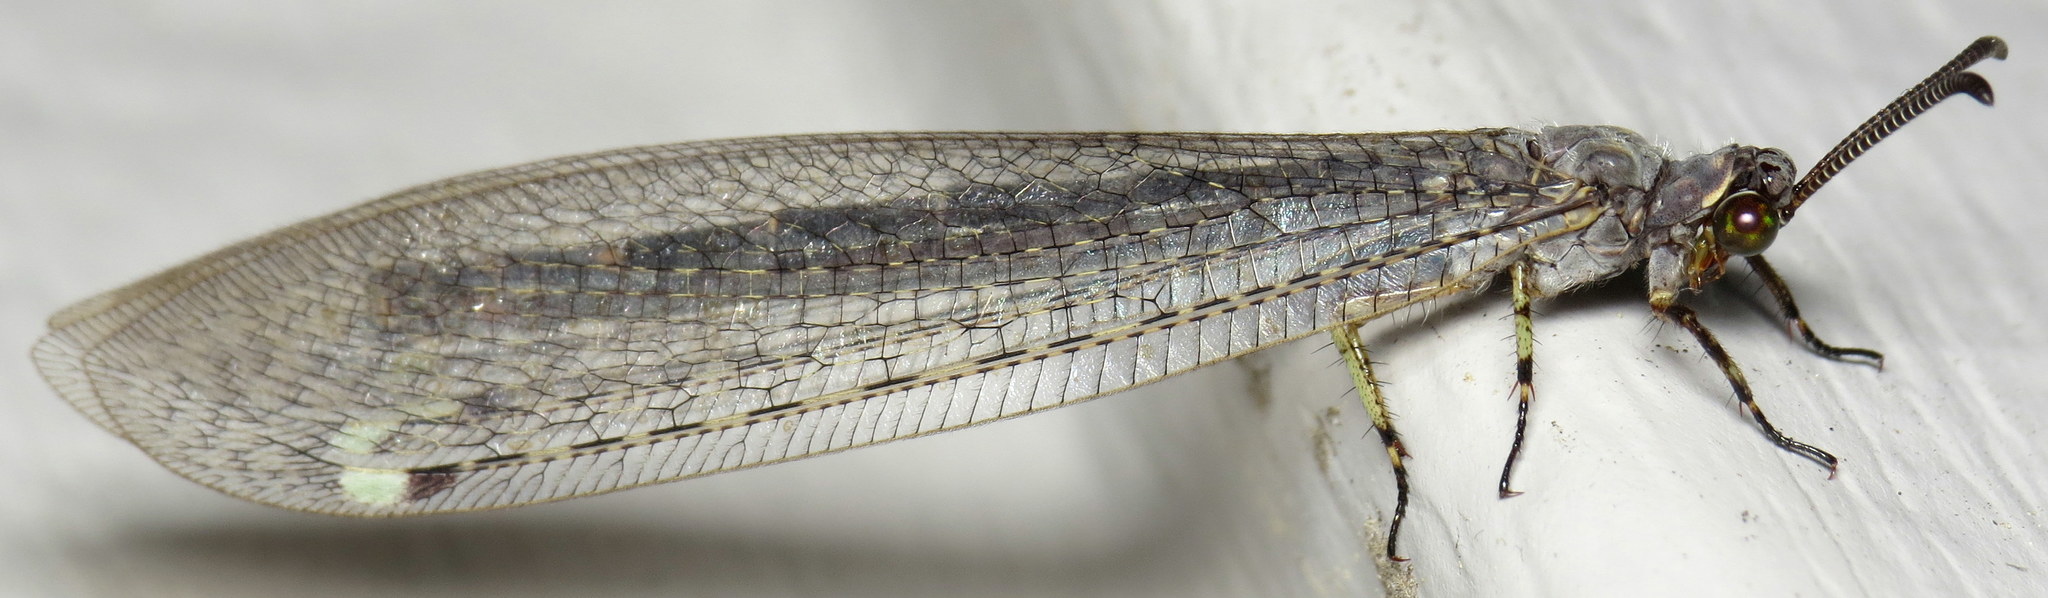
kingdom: Animalia
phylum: Arthropoda
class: Insecta
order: Neuroptera
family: Myrmeleontidae
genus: Myrmeleon
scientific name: Myrmeleon immaculatus
